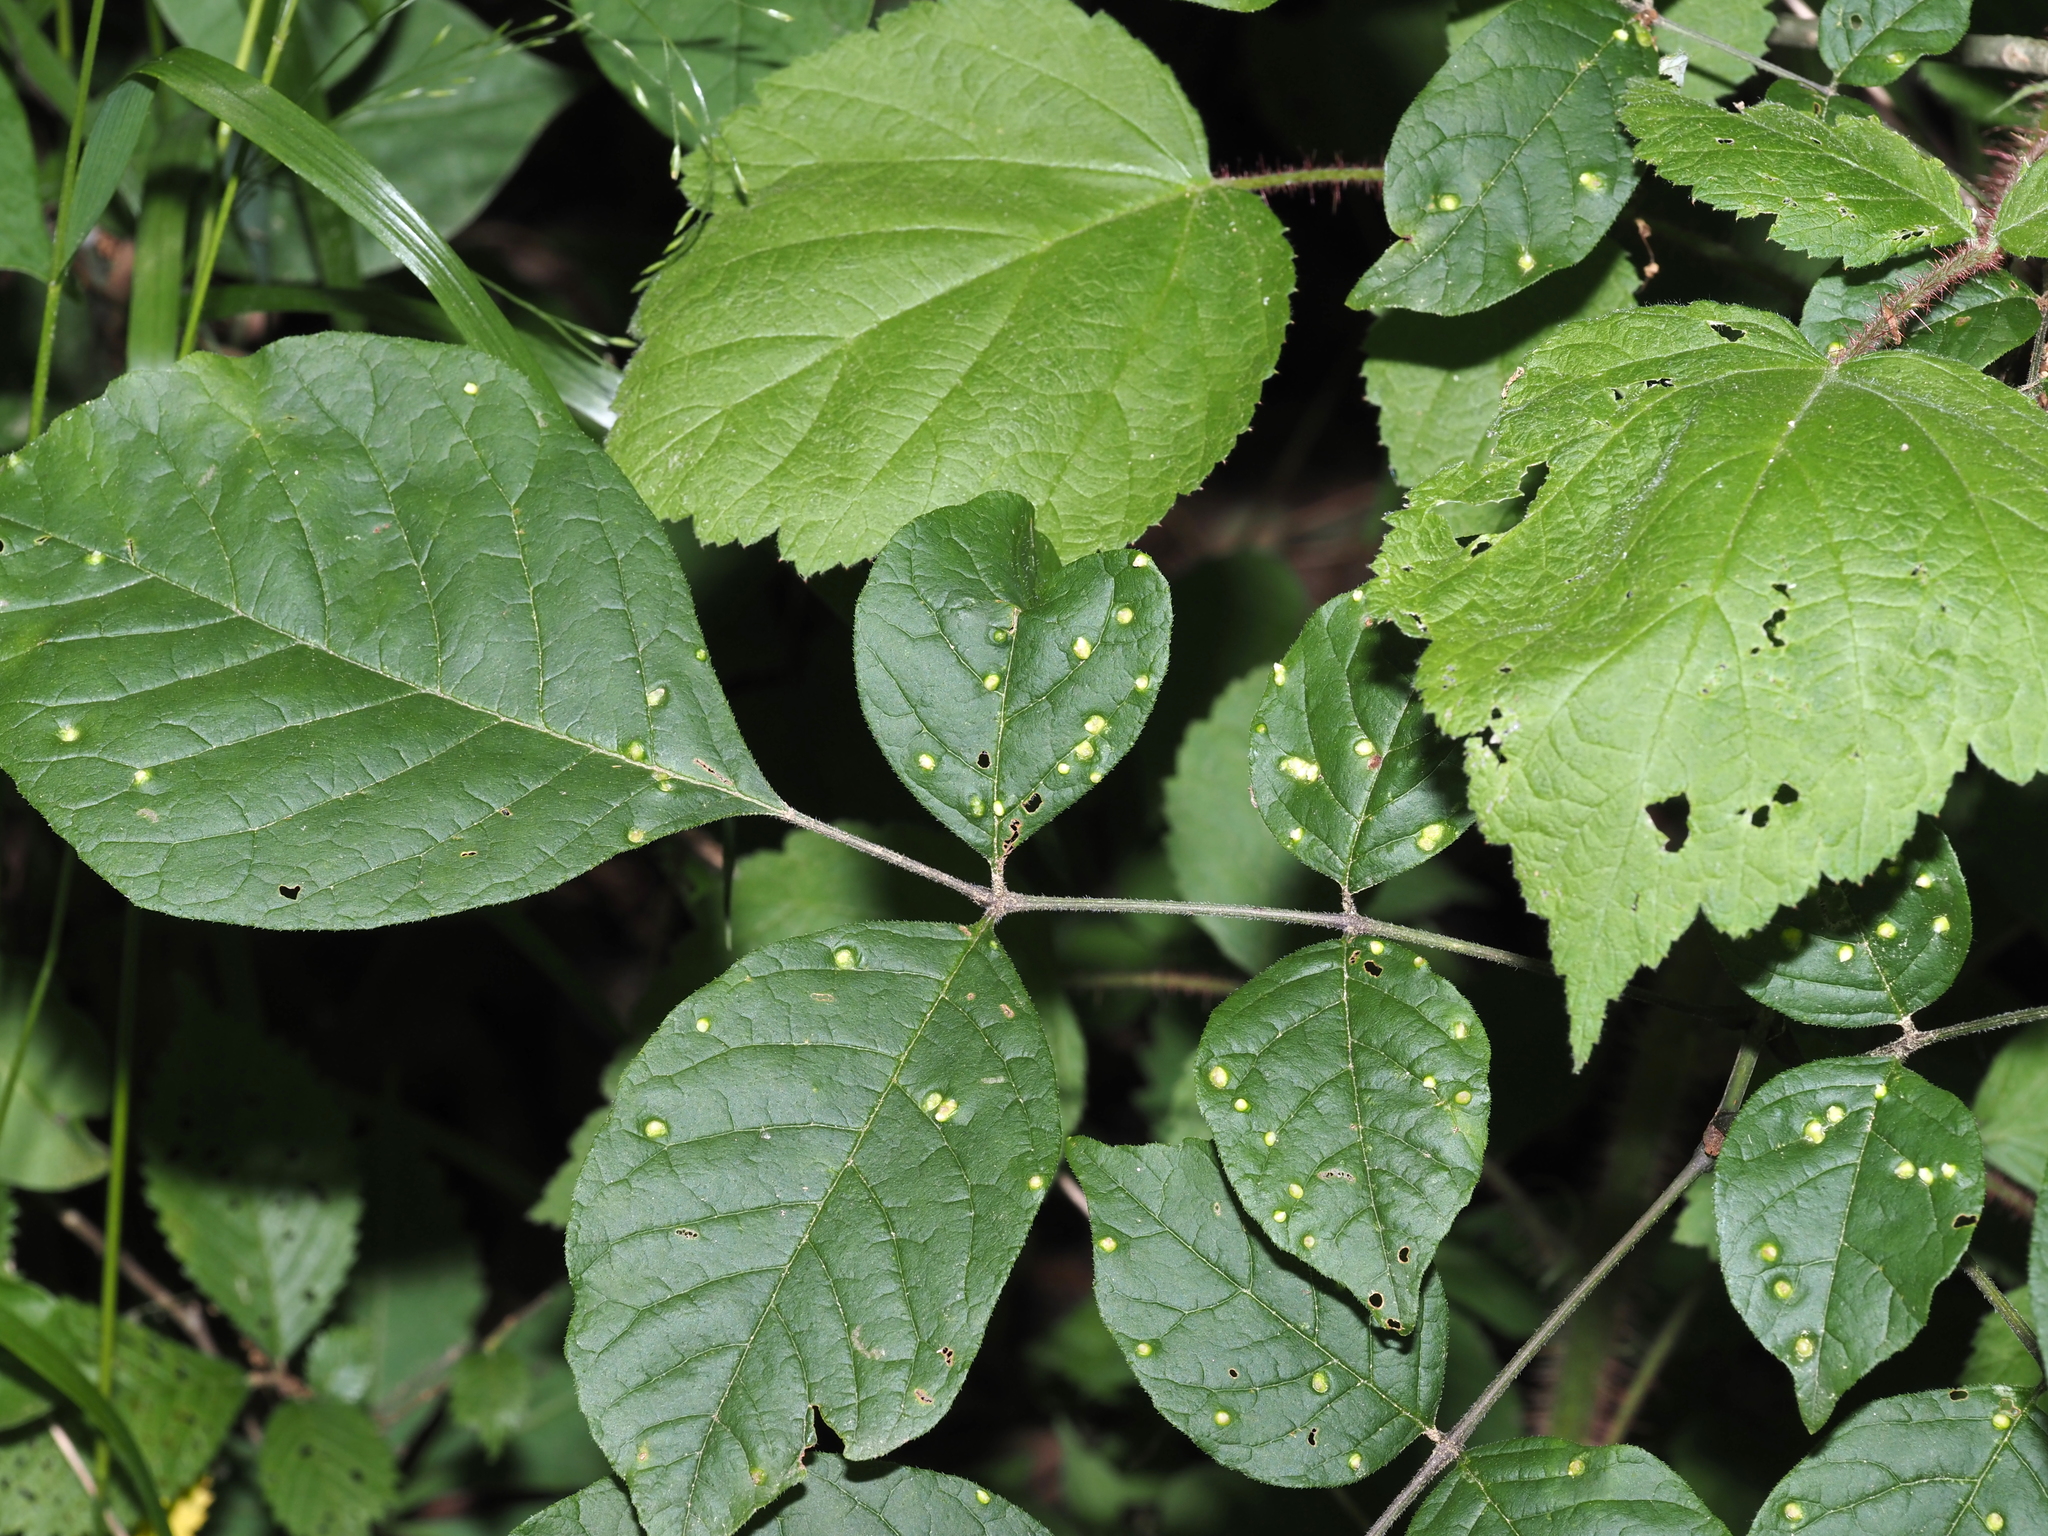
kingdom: Animalia
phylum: Arthropoda
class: Arachnida
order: Trombidiformes
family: Eriophyidae
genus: Aceria
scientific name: Aceria fraxinicola
